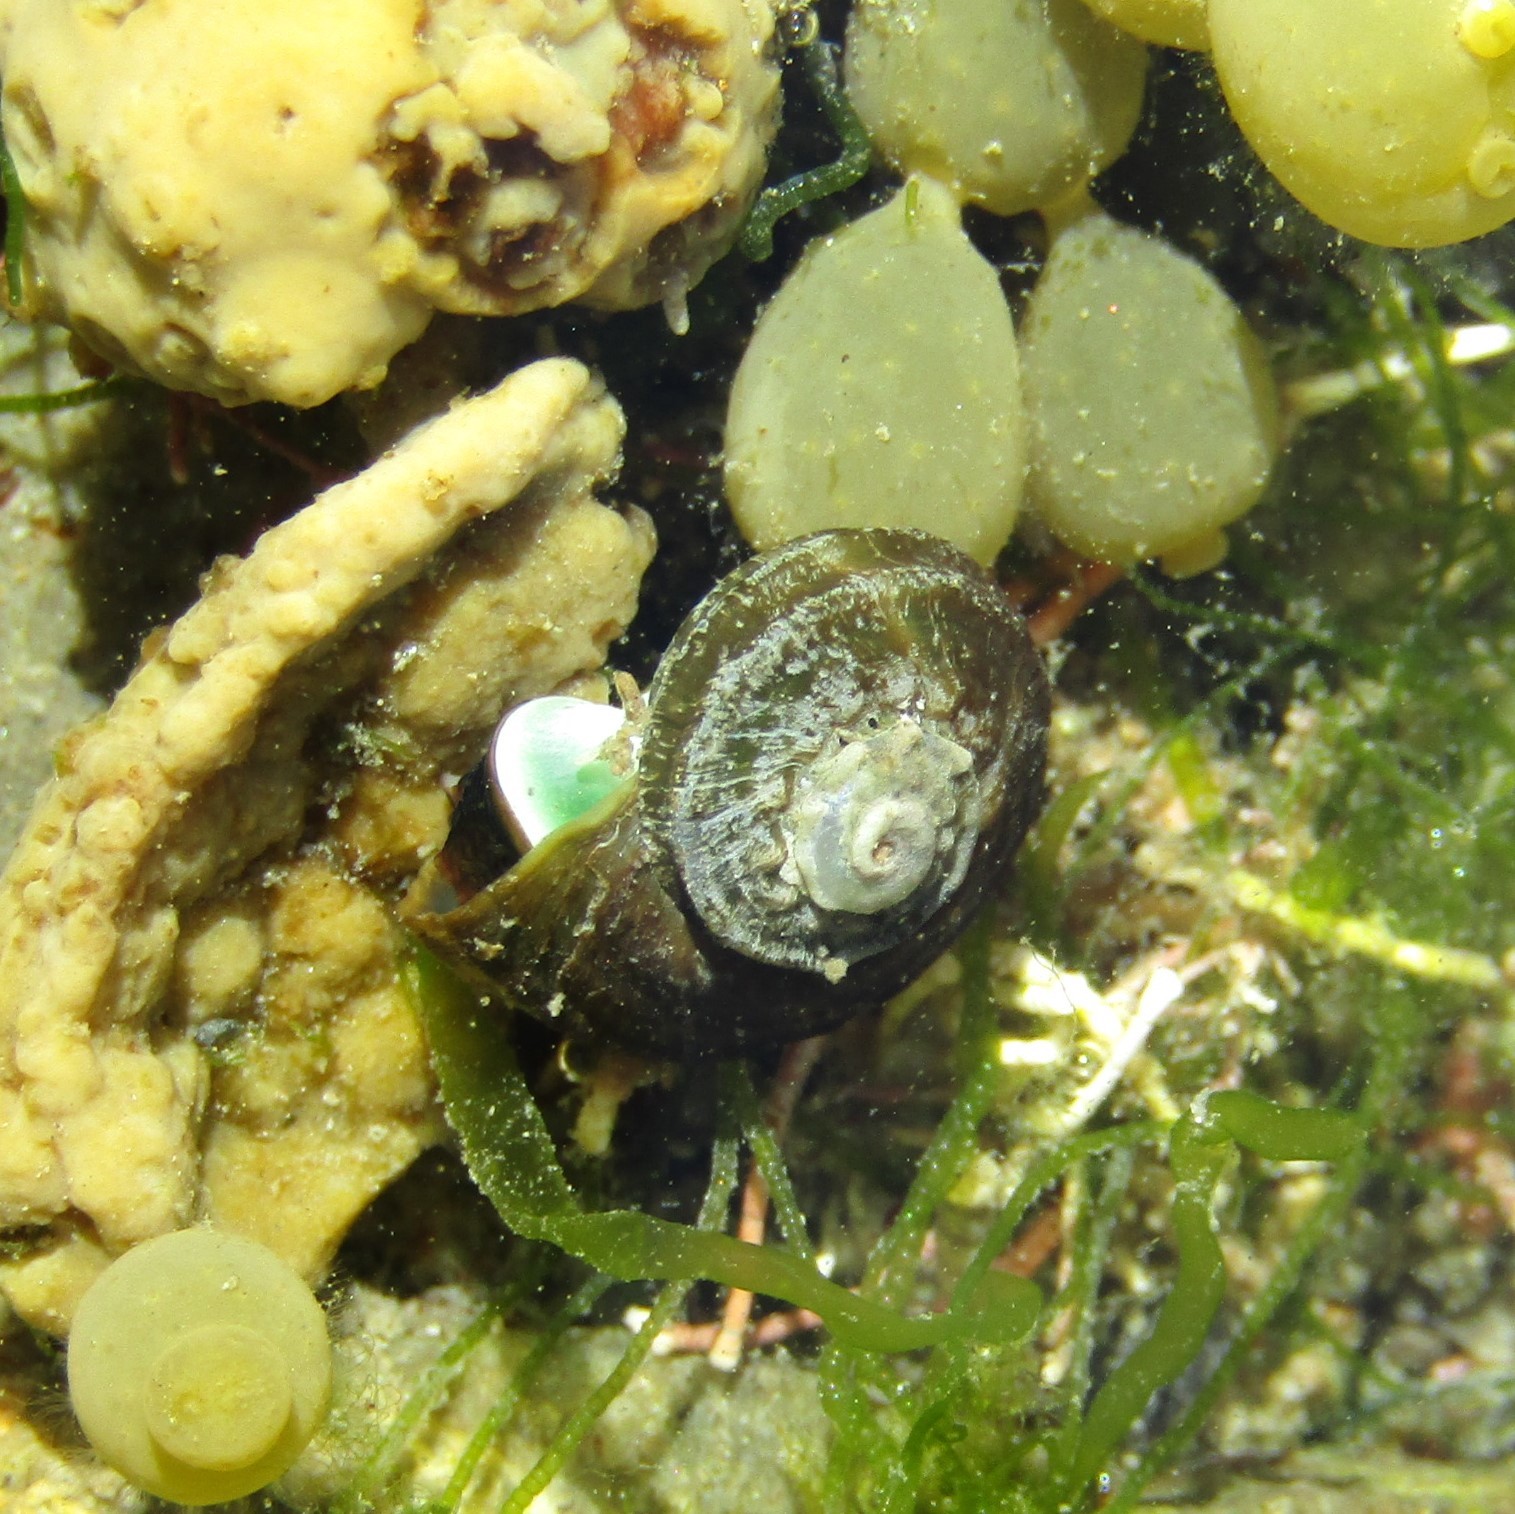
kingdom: Animalia
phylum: Mollusca
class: Gastropoda
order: Trochida
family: Turbinidae
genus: Lunella
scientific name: Lunella smaragda
